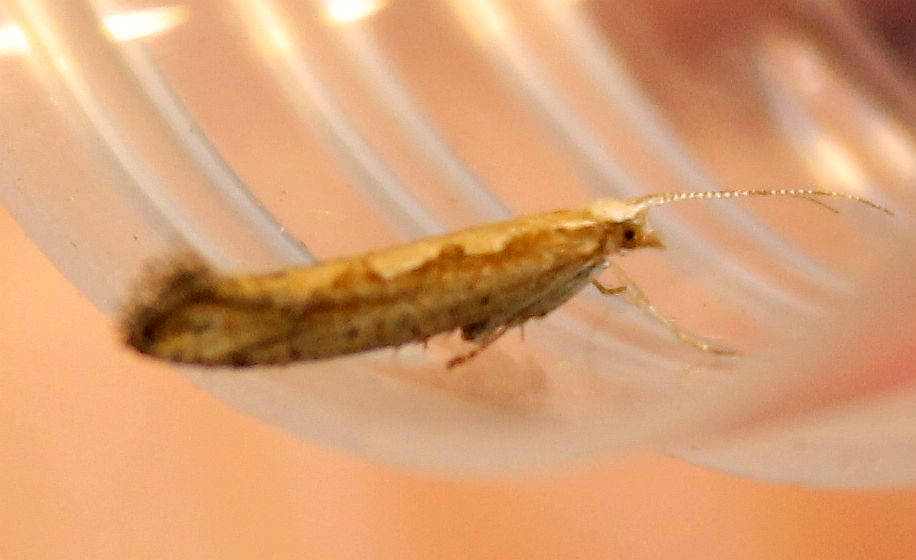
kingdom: Animalia
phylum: Arthropoda
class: Insecta
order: Lepidoptera
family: Plutellidae
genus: Plutella
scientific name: Plutella xylostella
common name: Diamond-back moth
